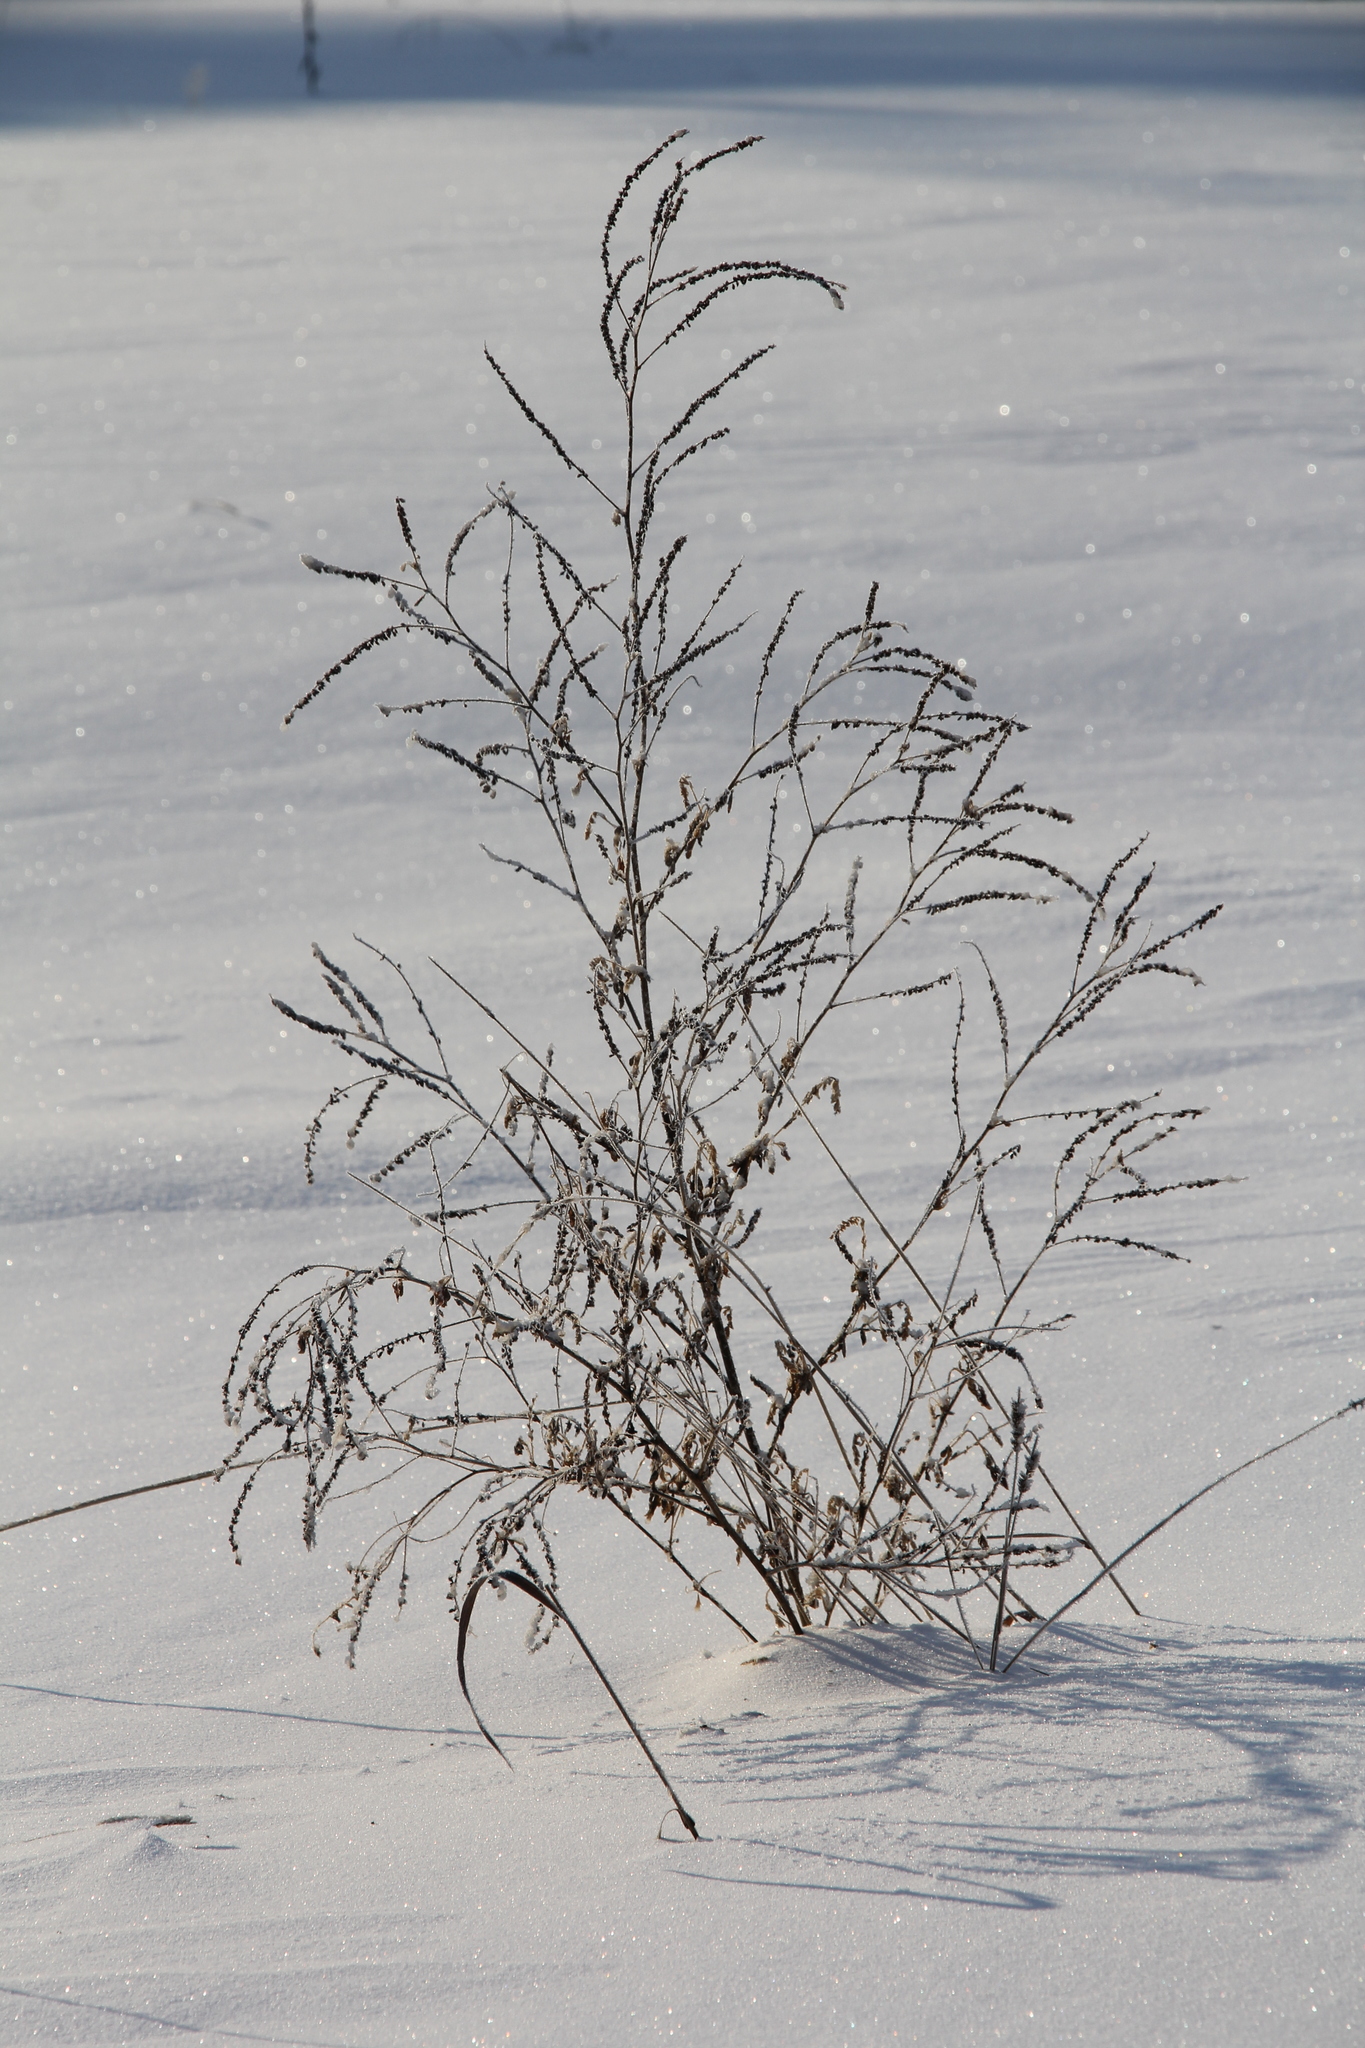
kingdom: Plantae
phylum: Tracheophyta
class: Magnoliopsida
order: Fabales
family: Fabaceae
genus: Melilotus
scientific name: Melilotus albus
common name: White melilot
